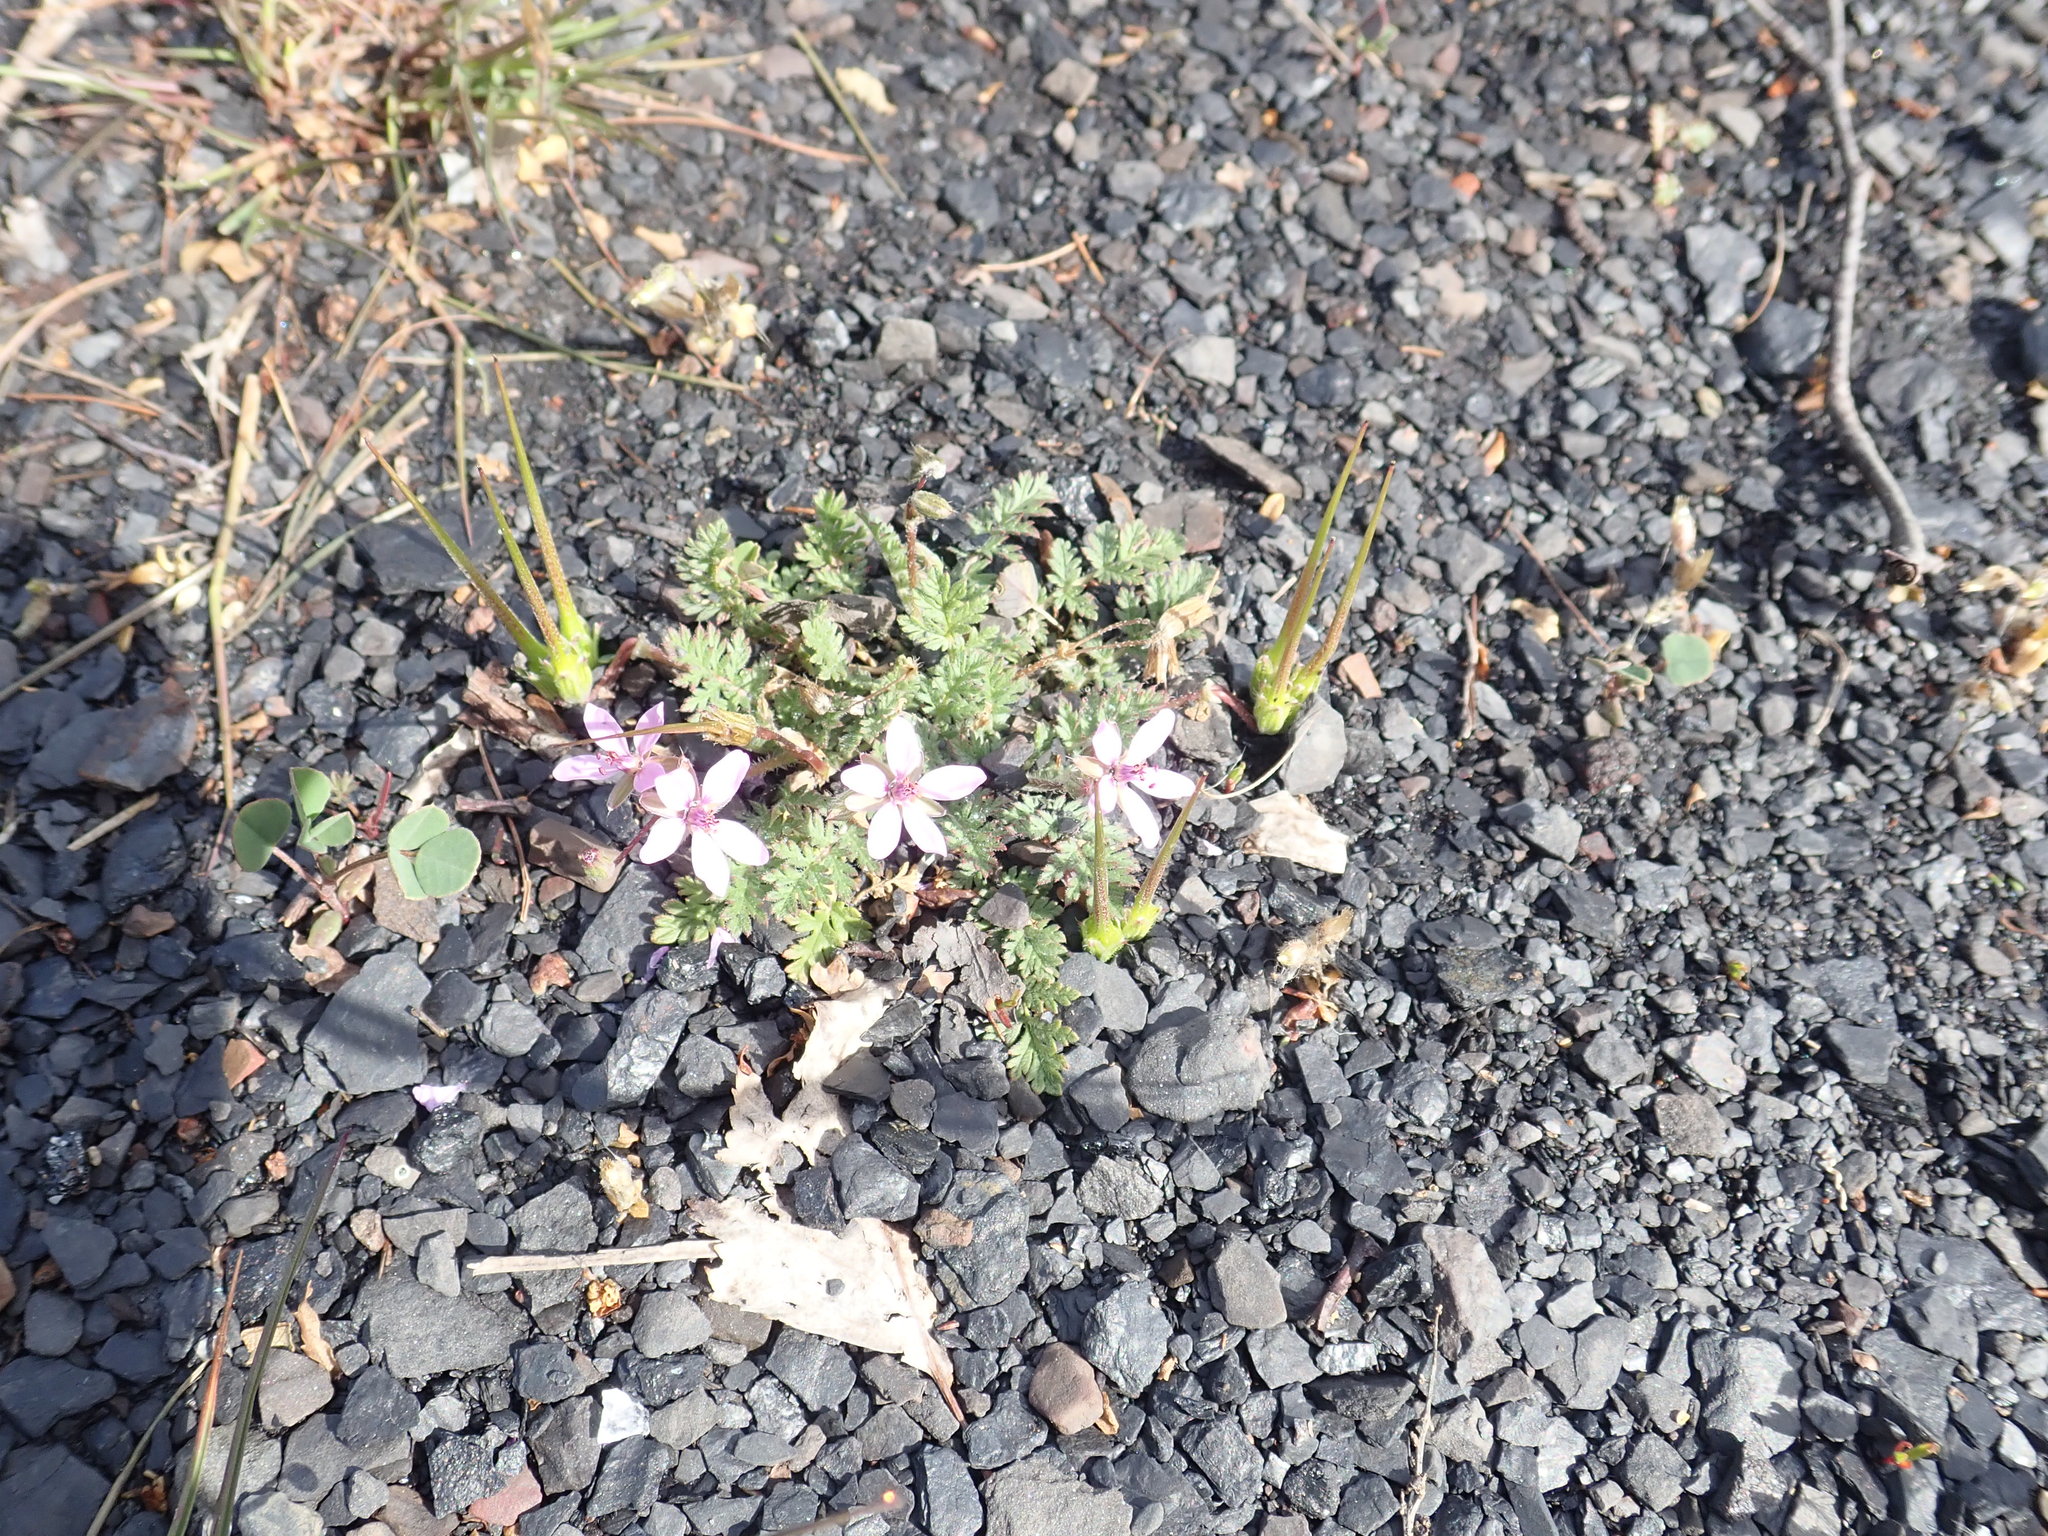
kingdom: Plantae
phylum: Tracheophyta
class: Magnoliopsida
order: Geraniales
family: Geraniaceae
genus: Erodium
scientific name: Erodium cicutarium
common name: Common stork's-bill
